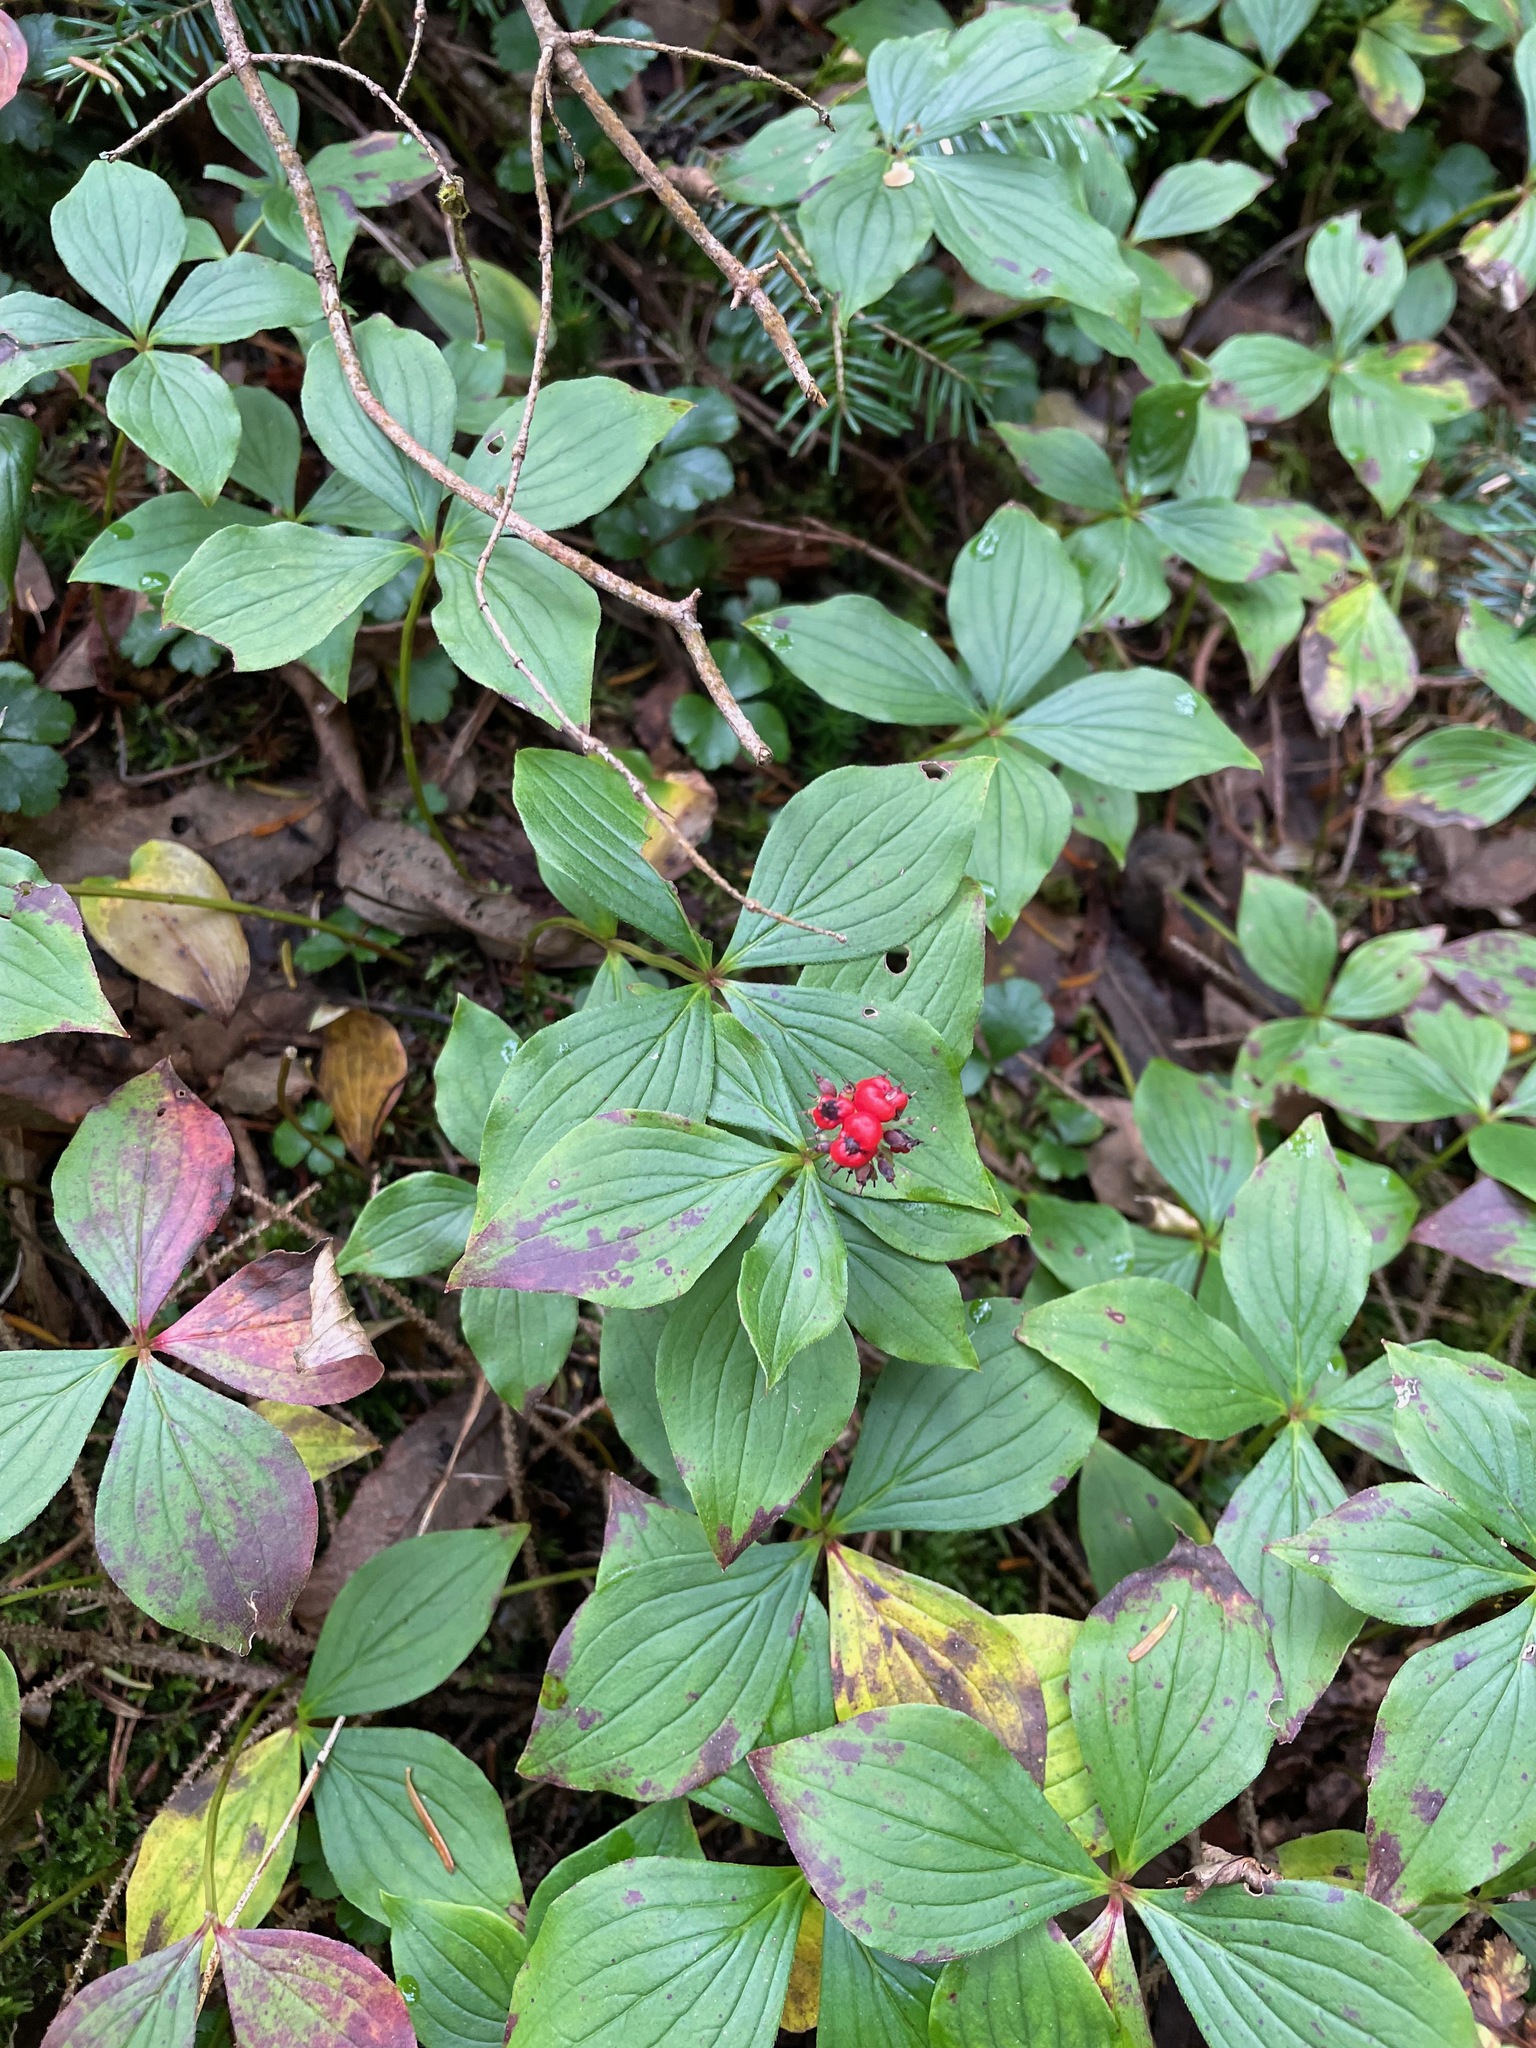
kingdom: Plantae
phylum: Tracheophyta
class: Magnoliopsida
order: Cornales
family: Cornaceae
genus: Cornus
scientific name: Cornus canadensis
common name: Creeping dogwood
